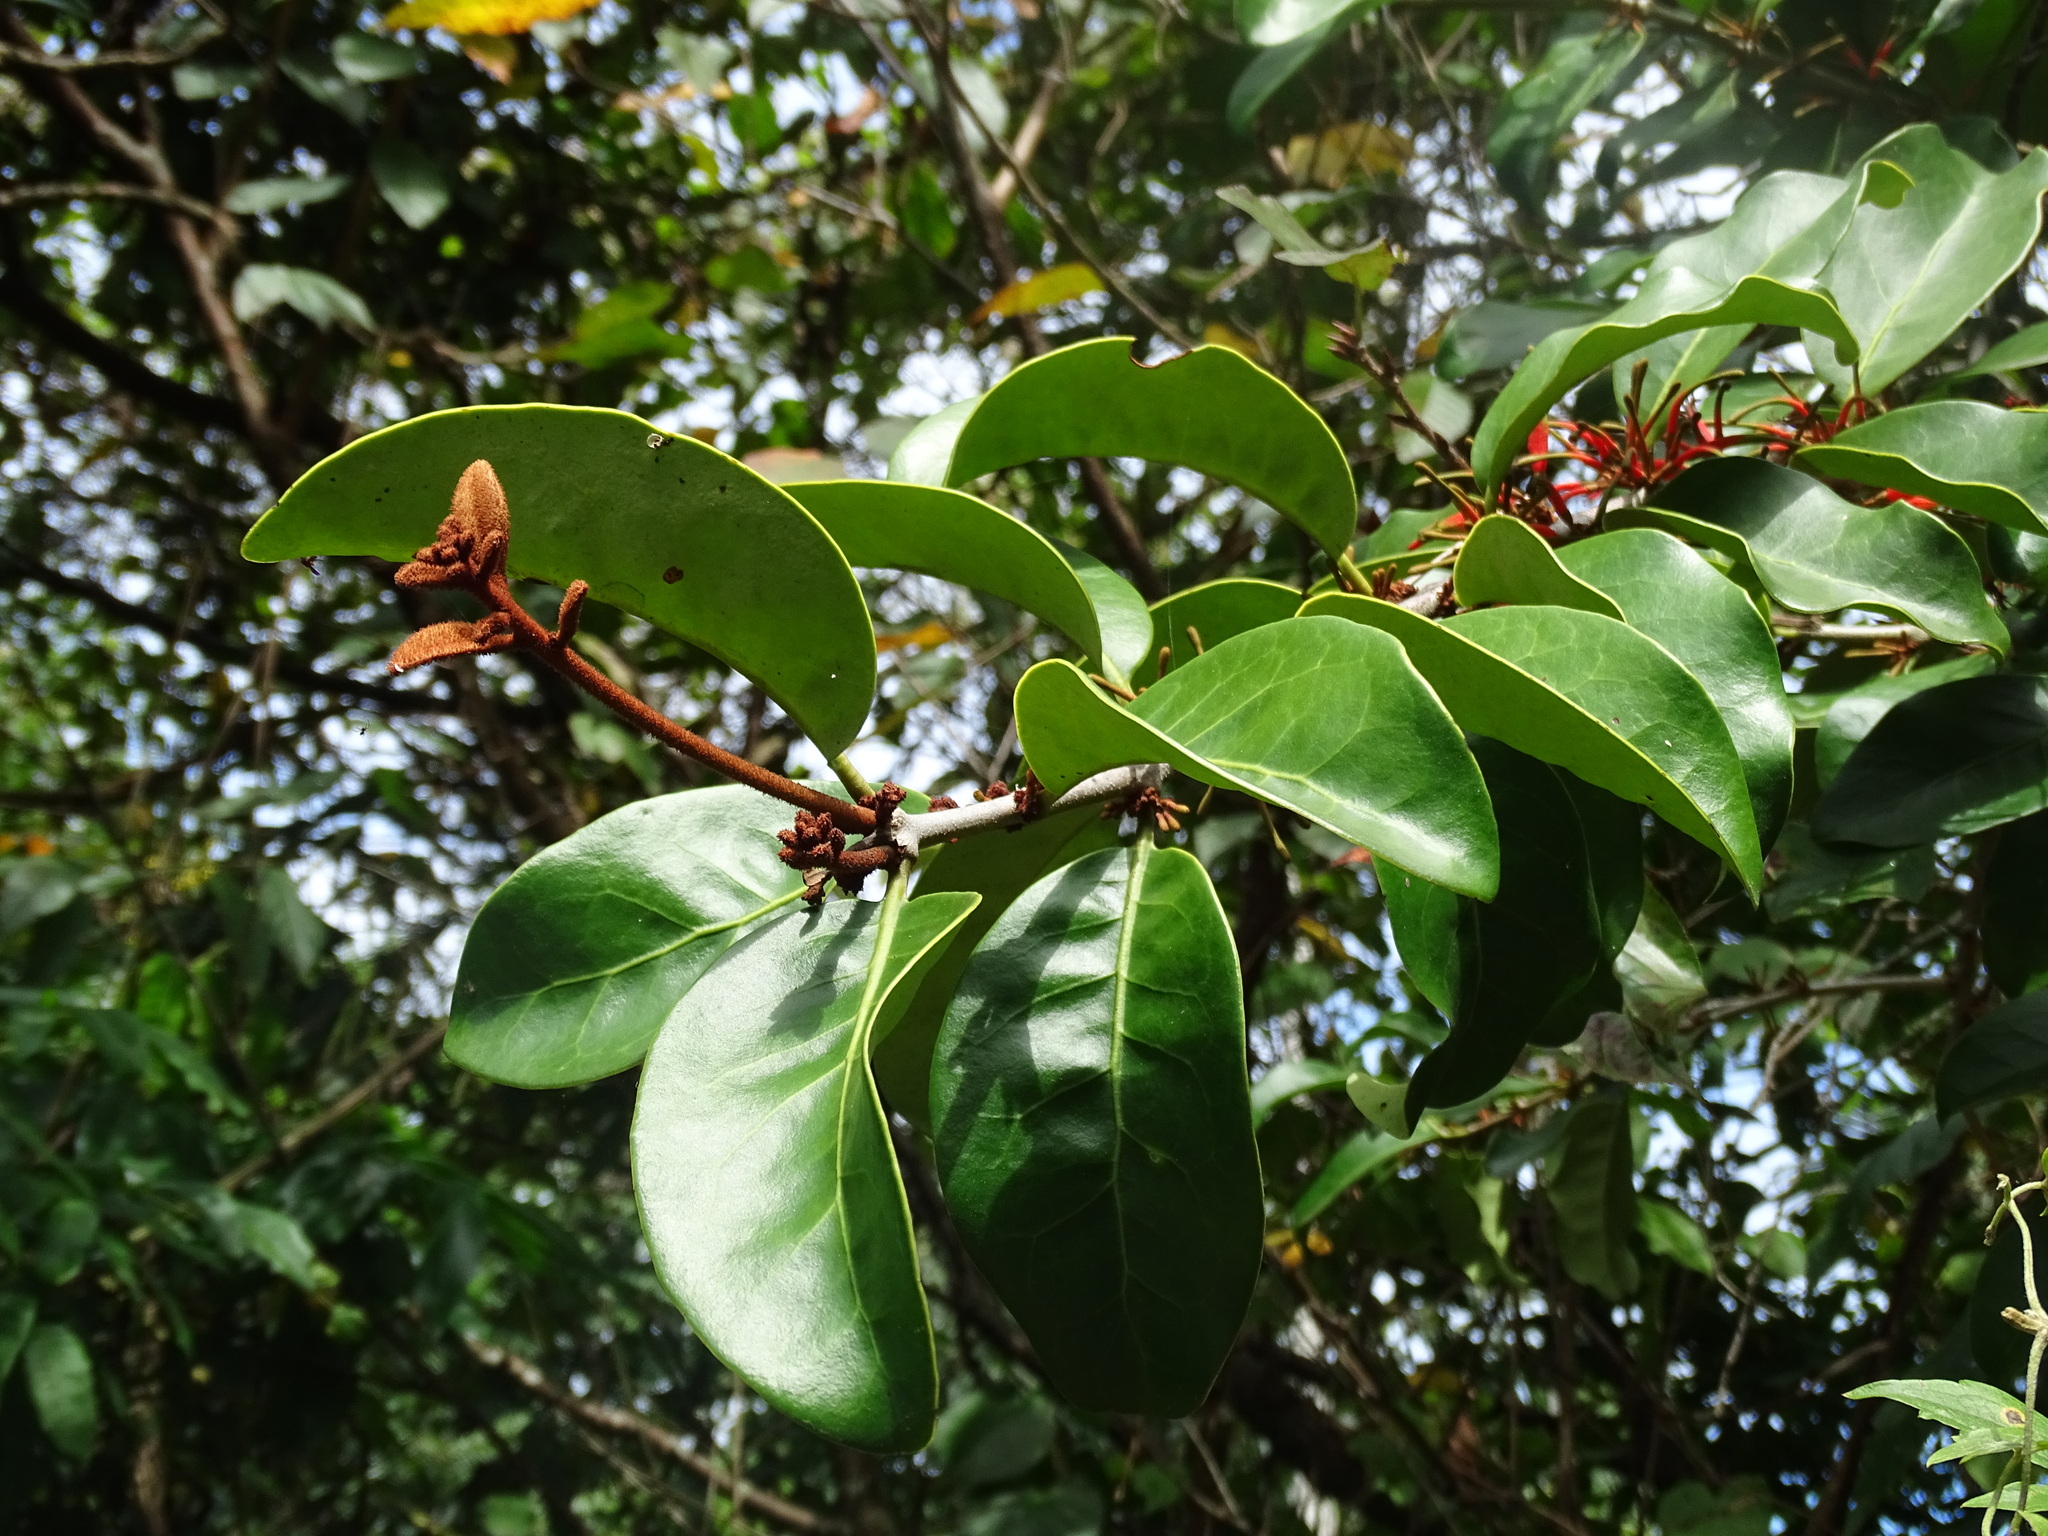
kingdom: Plantae
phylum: Tracheophyta
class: Magnoliopsida
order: Santalales
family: Loranthaceae
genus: Taxillus
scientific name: Taxillus liquidambaricola
